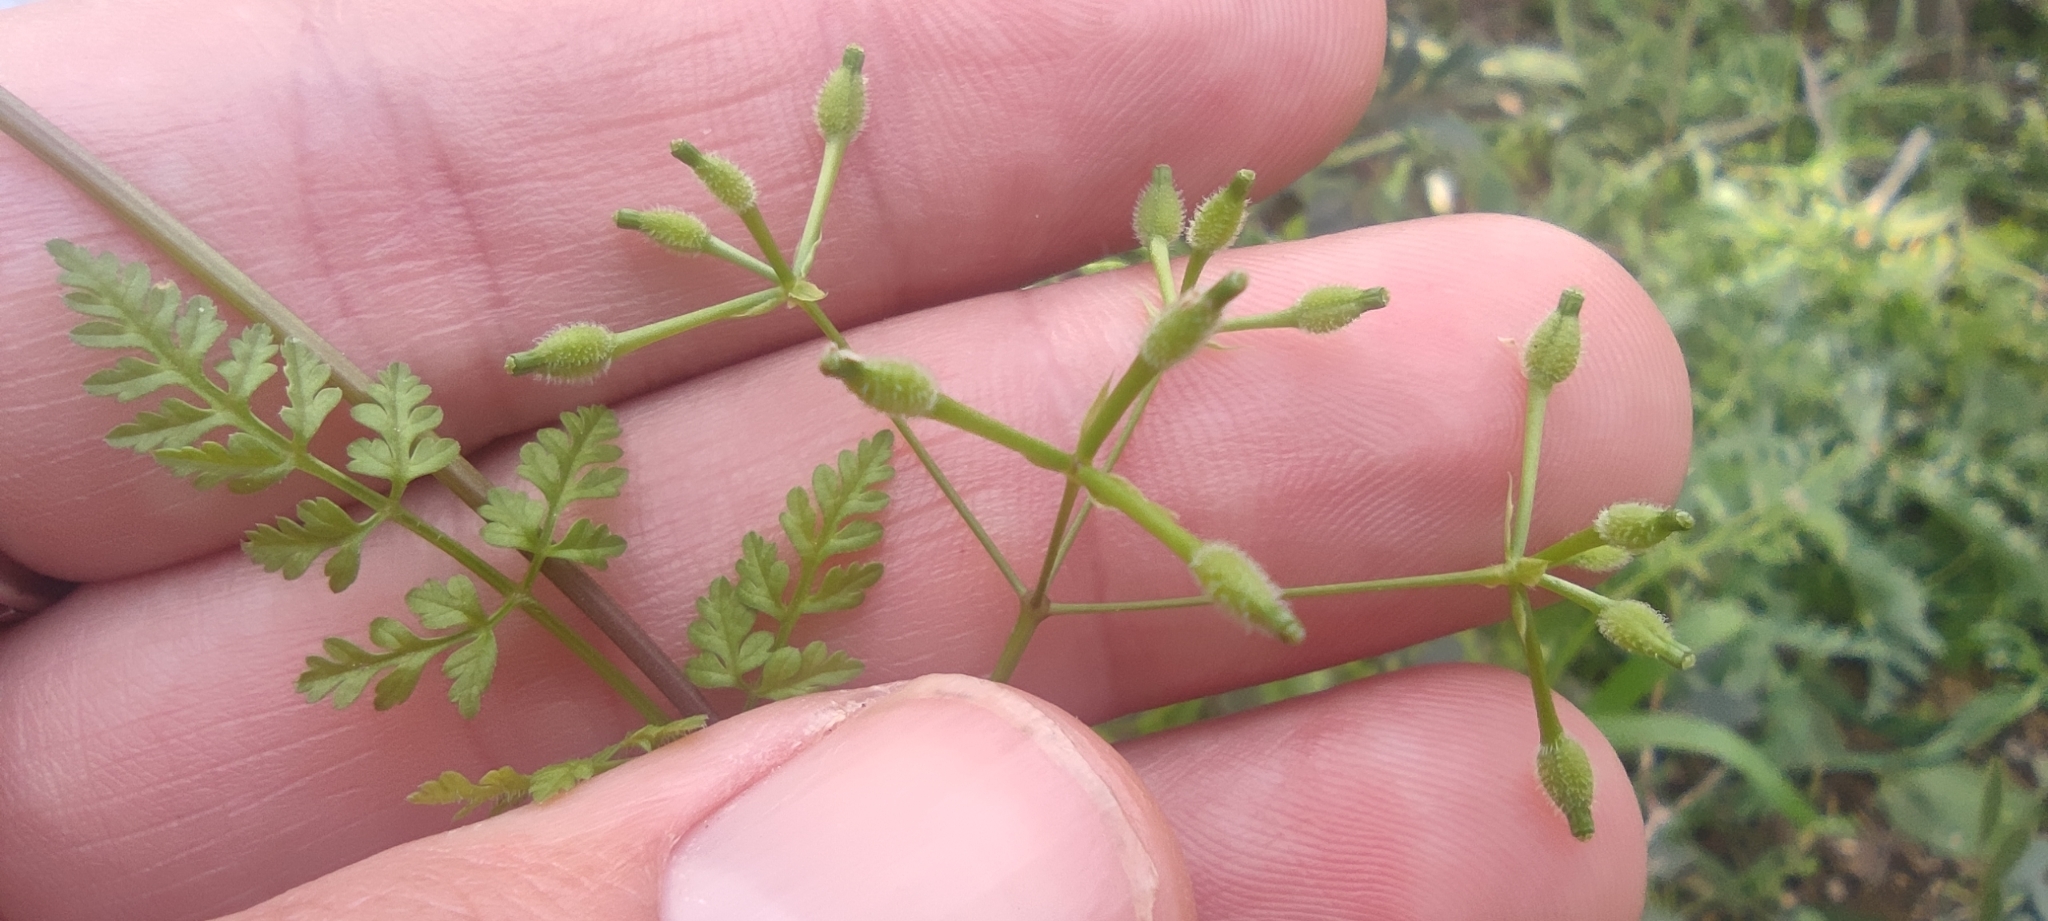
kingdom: Plantae
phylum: Tracheophyta
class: Magnoliopsida
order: Apiales
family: Apiaceae
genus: Anthriscus
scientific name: Anthriscus caucalis
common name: Bur chervil
